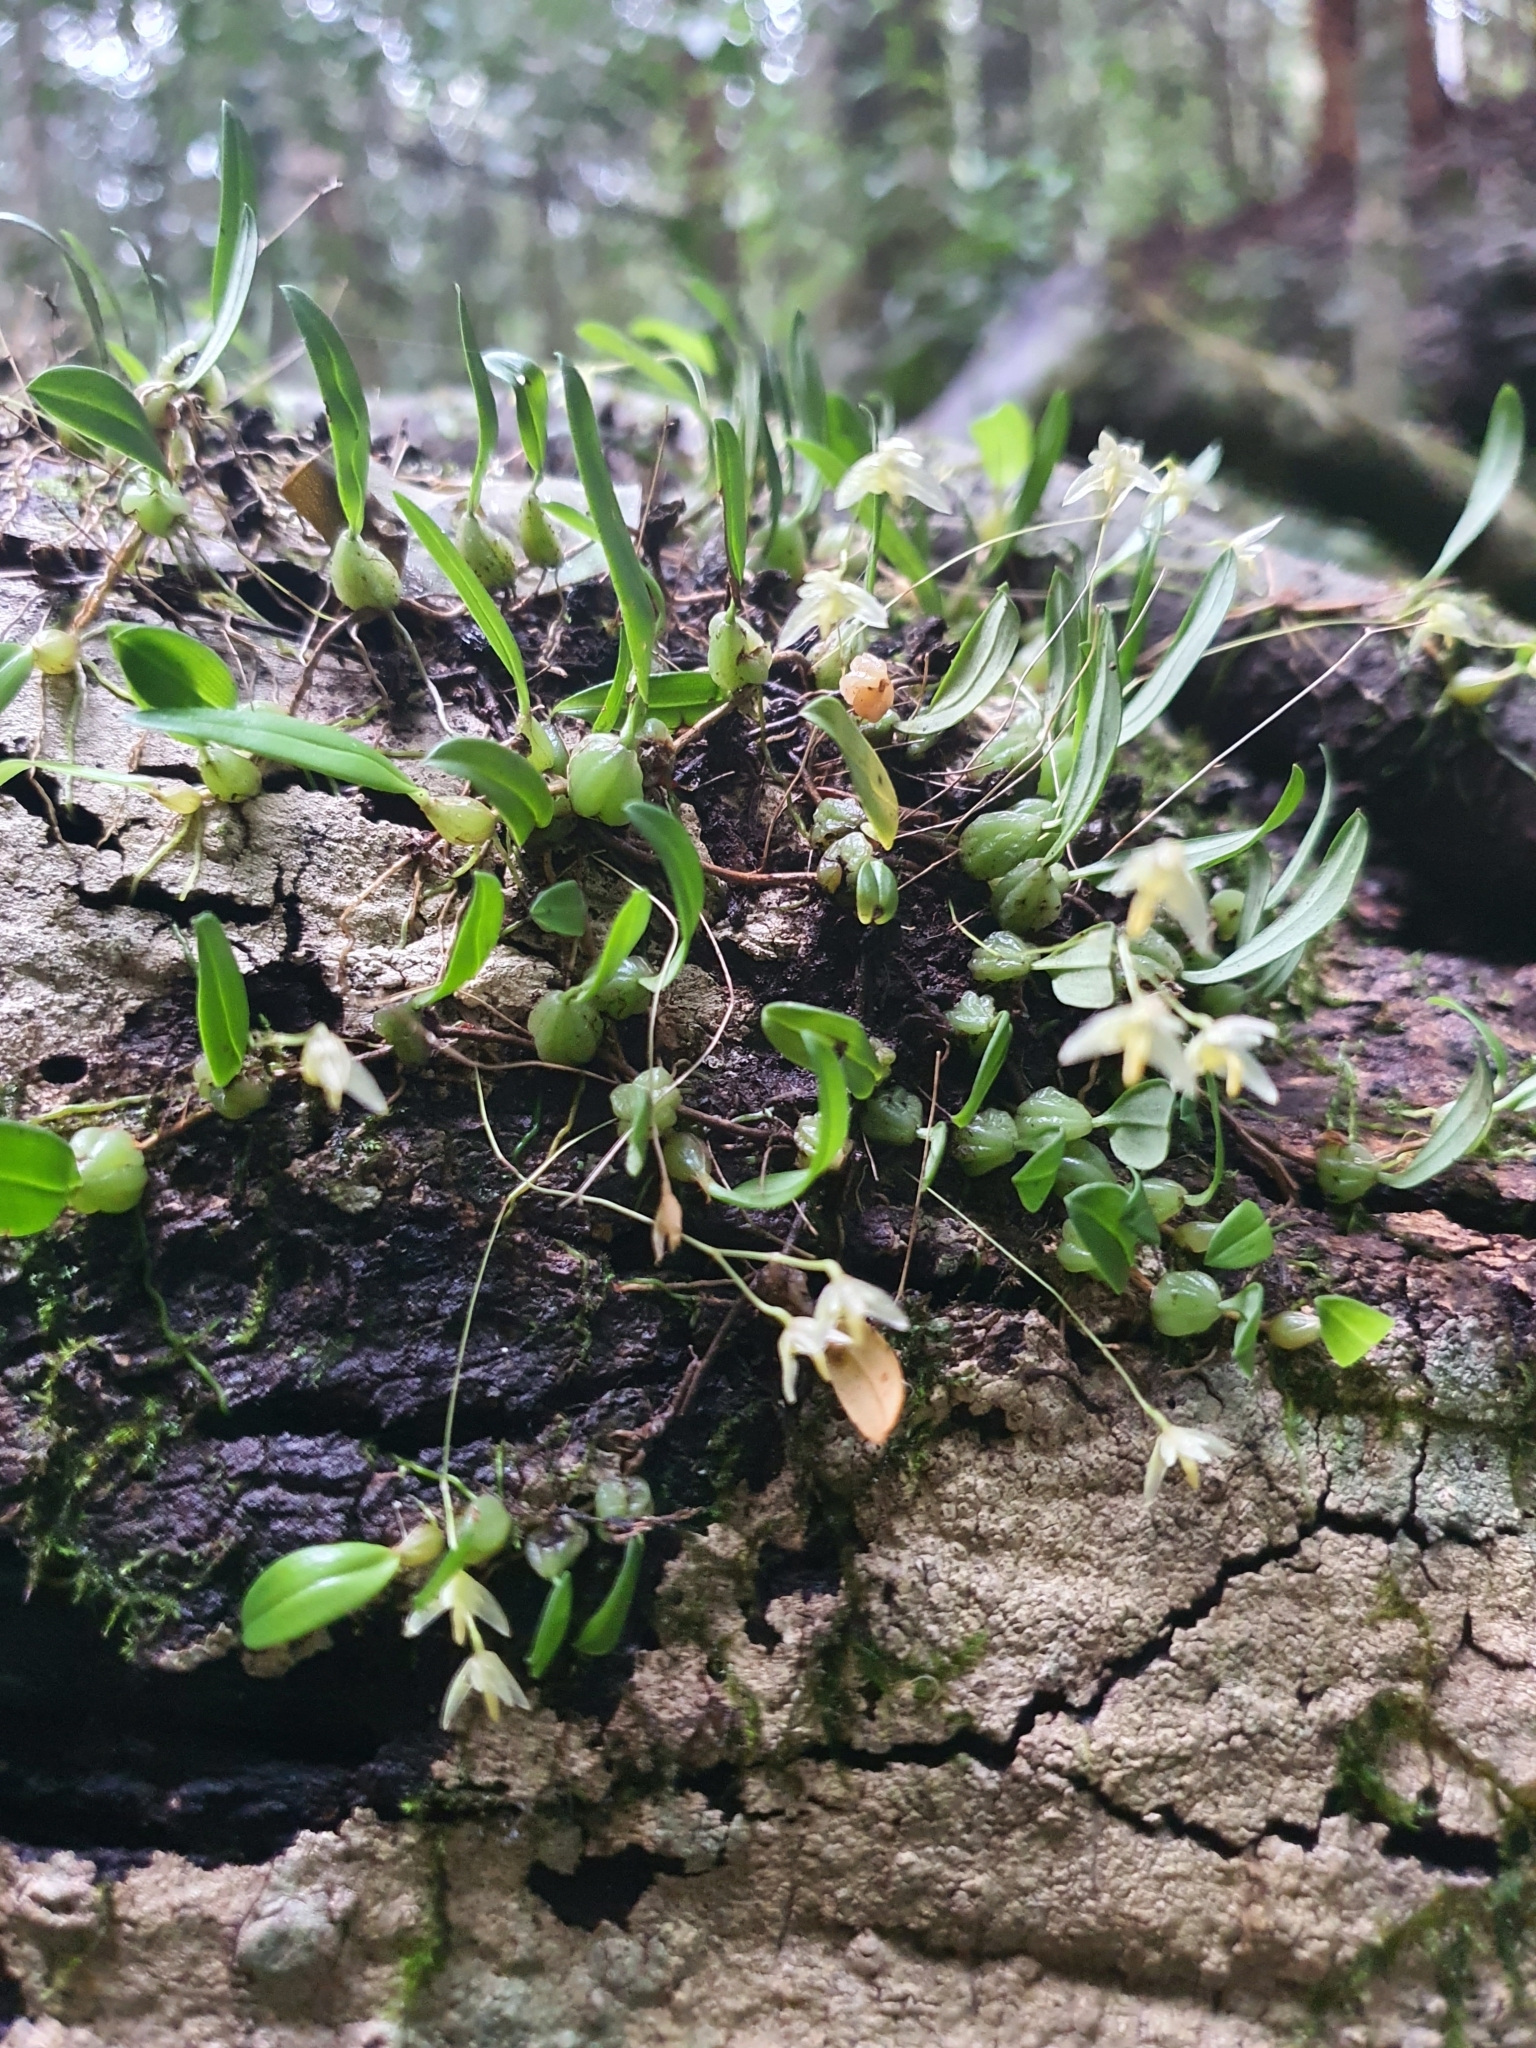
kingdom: Plantae
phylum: Tracheophyta
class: Liliopsida
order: Asparagales
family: Orchidaceae
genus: Bulbophyllum
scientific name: Bulbophyllum exiguum
